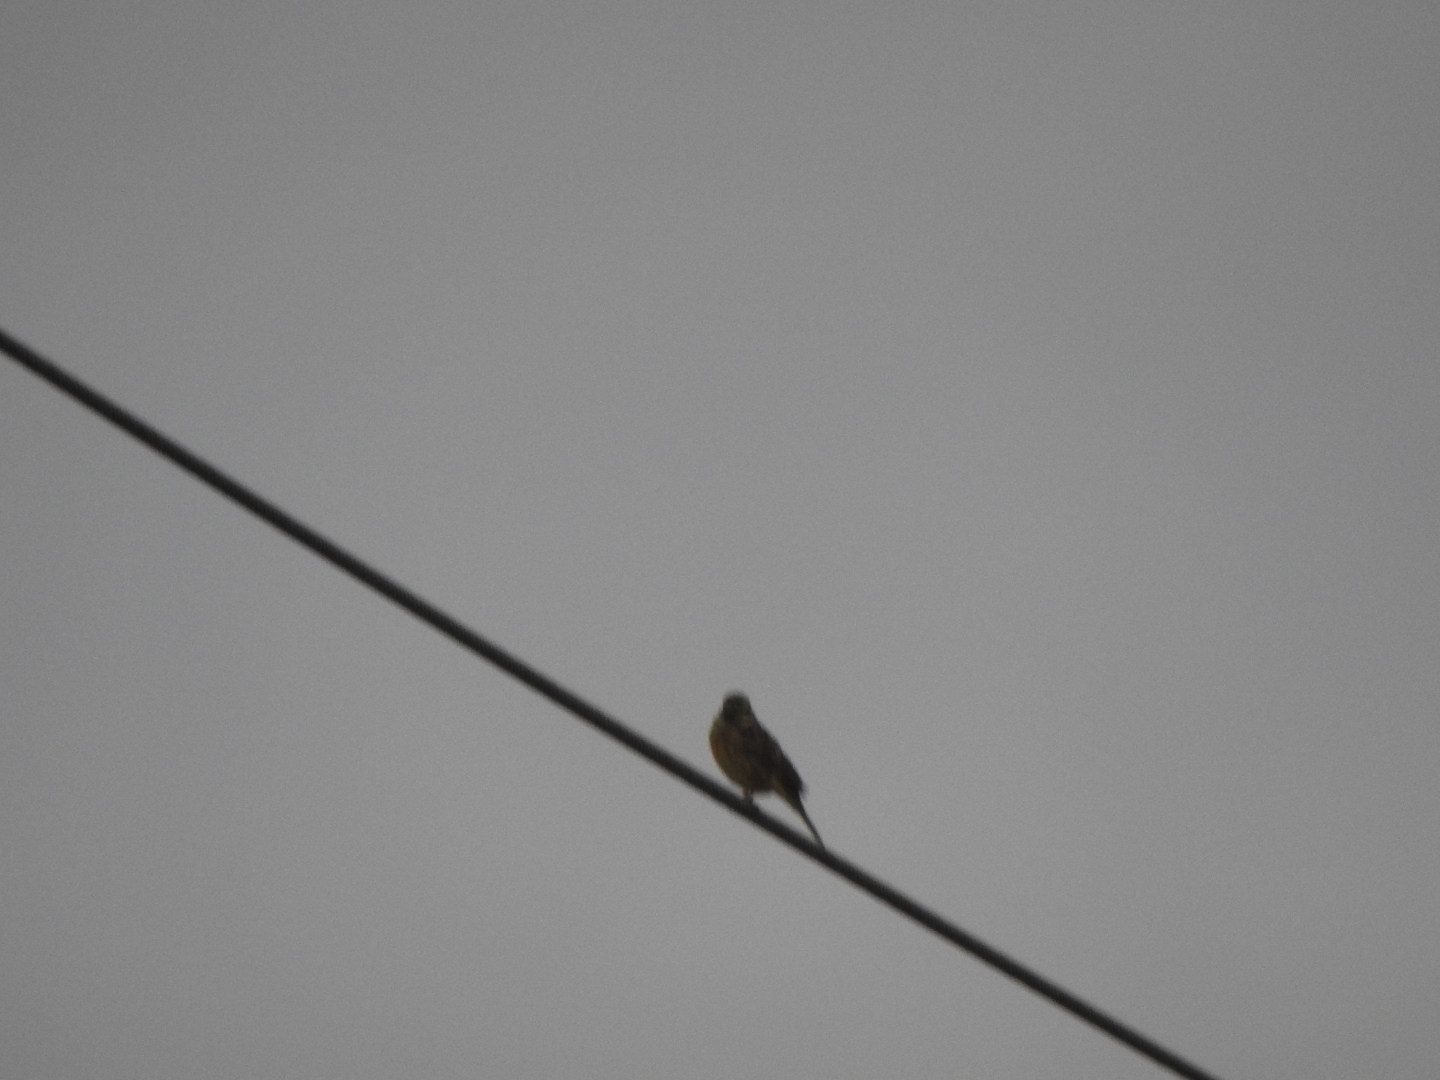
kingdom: Animalia
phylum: Chordata
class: Aves
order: Passeriformes
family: Emberizidae
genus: Emberiza
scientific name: Emberiza cirlus
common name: Cirl bunting
